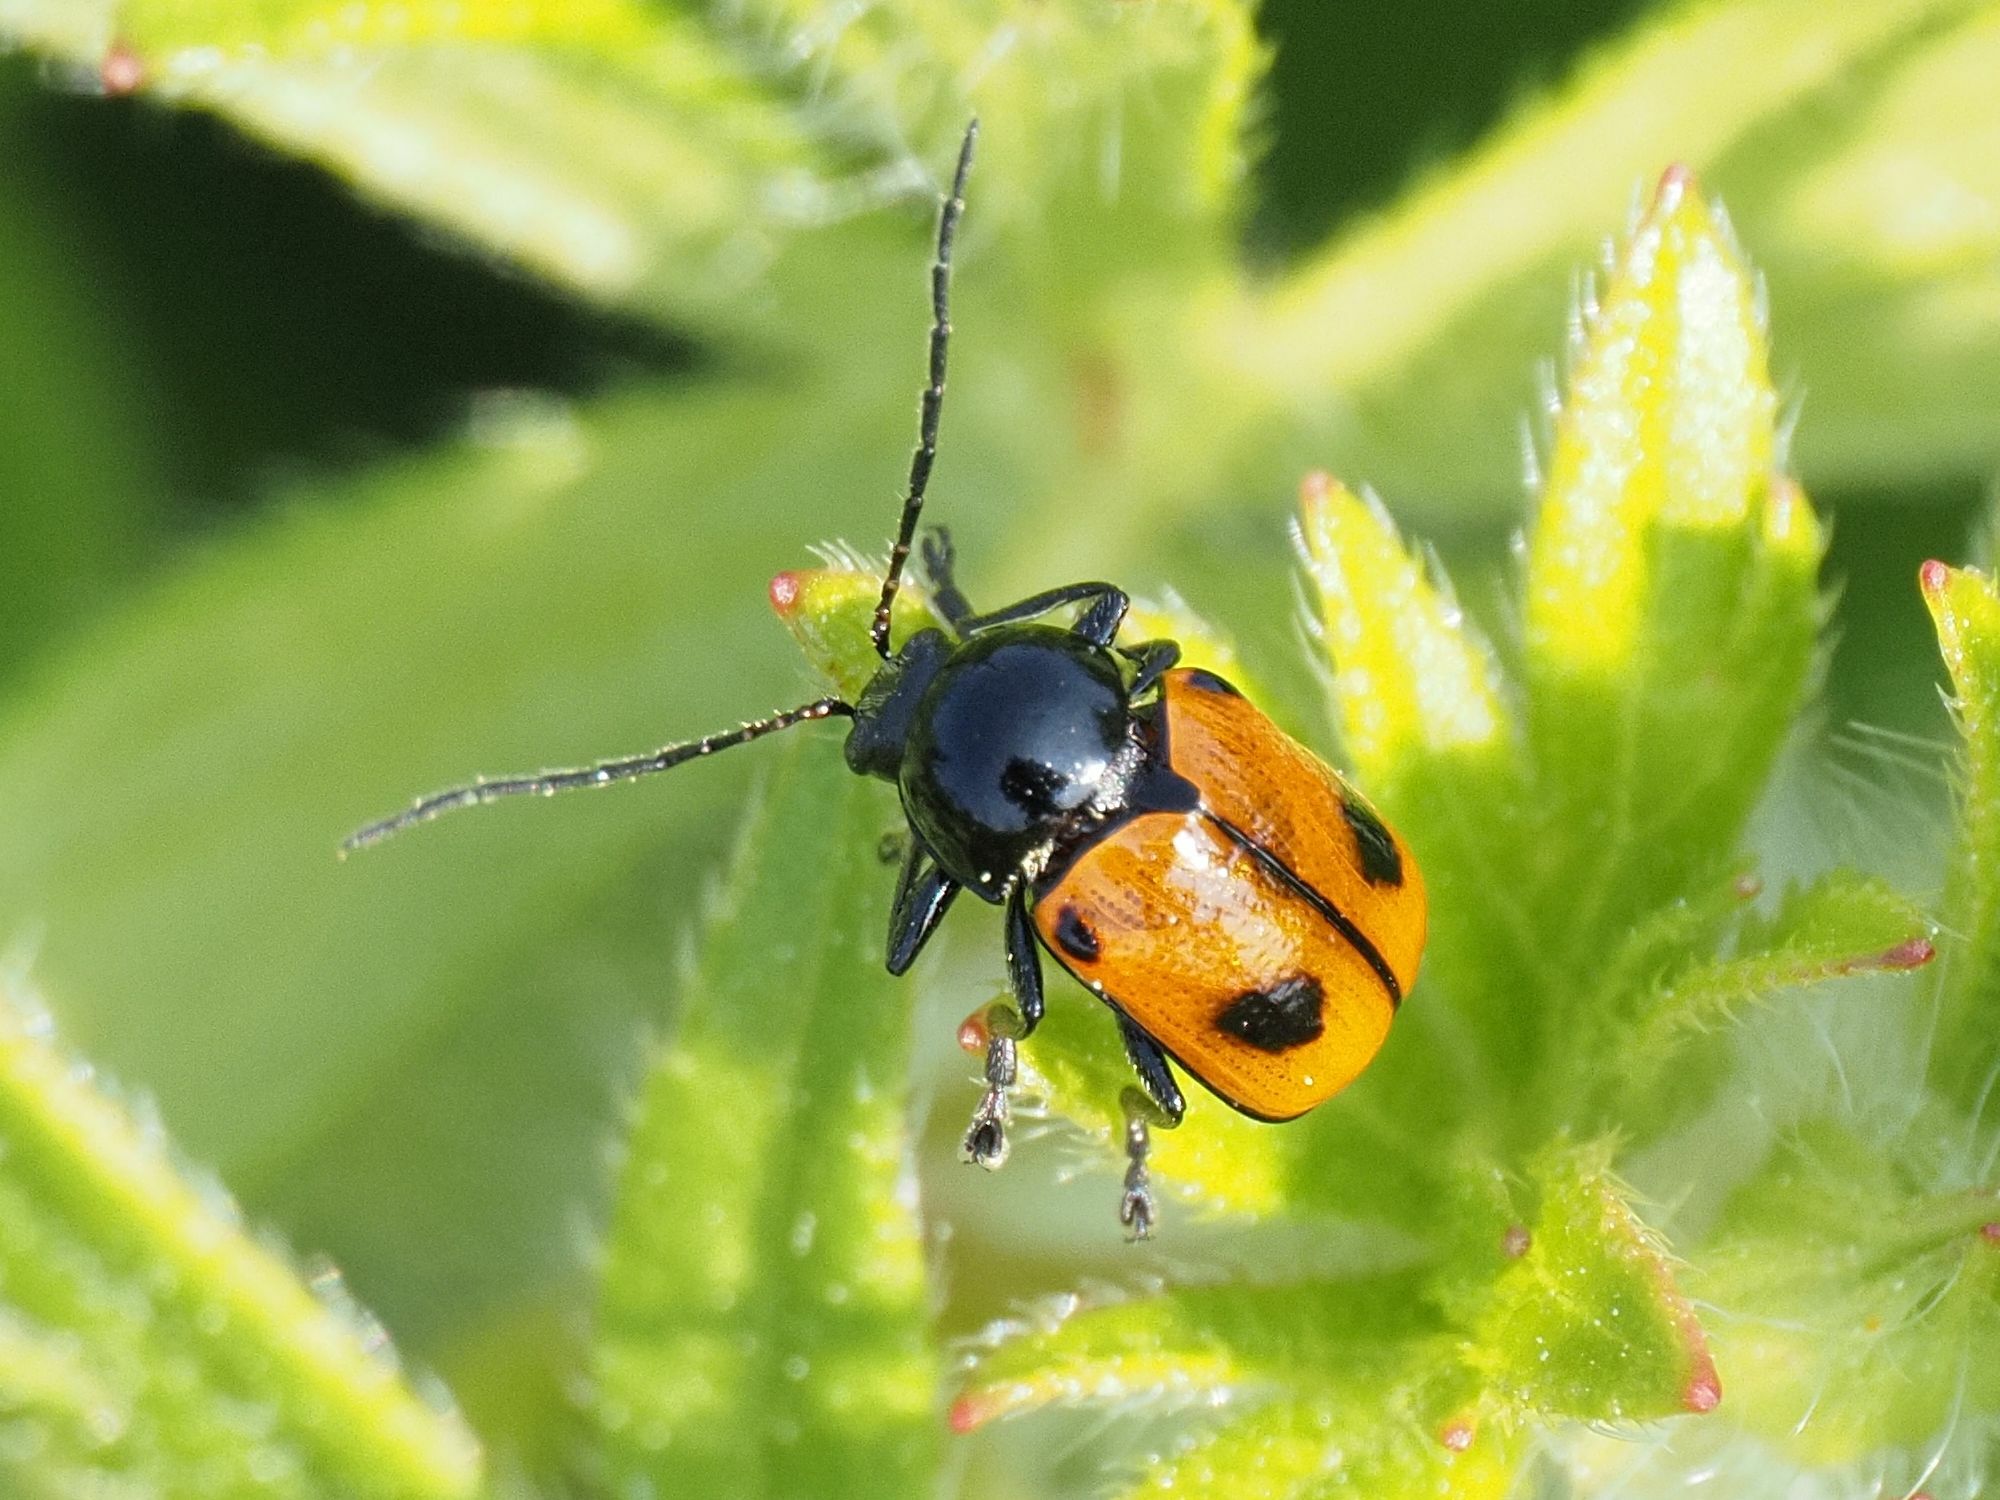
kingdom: Animalia
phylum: Arthropoda
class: Insecta
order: Coleoptera
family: Chrysomelidae
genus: Chiridopsis
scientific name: Chiridopsis bipunctata
